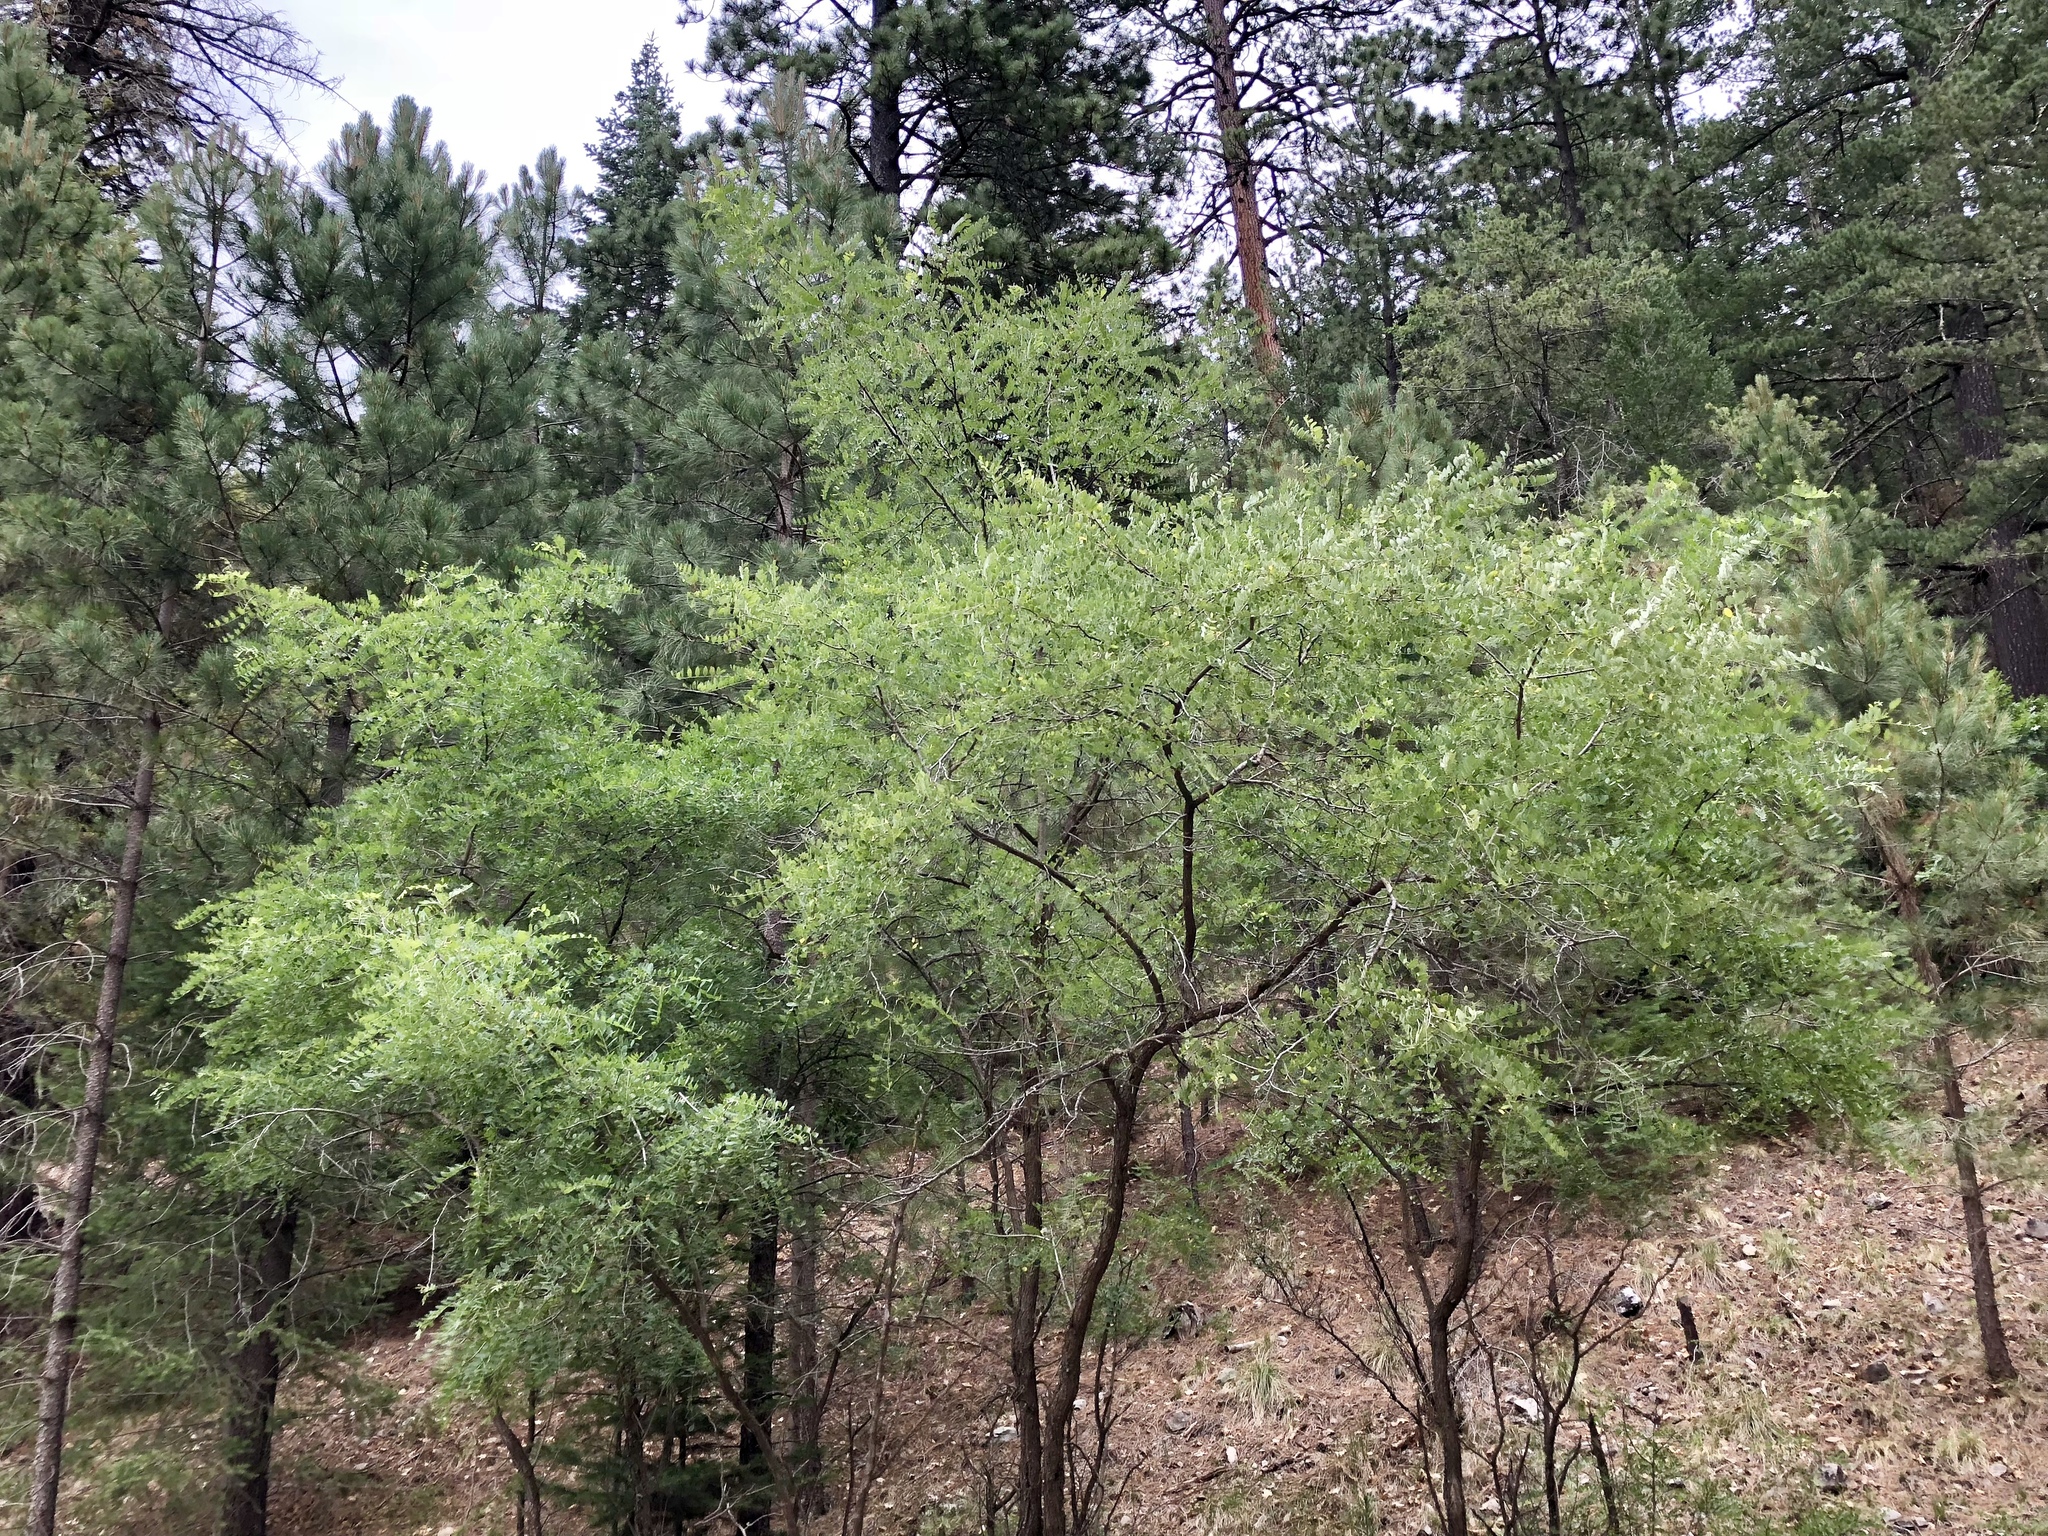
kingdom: Plantae
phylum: Tracheophyta
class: Magnoliopsida
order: Fabales
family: Fabaceae
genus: Robinia
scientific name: Robinia neomexicana
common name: New mexico locust
